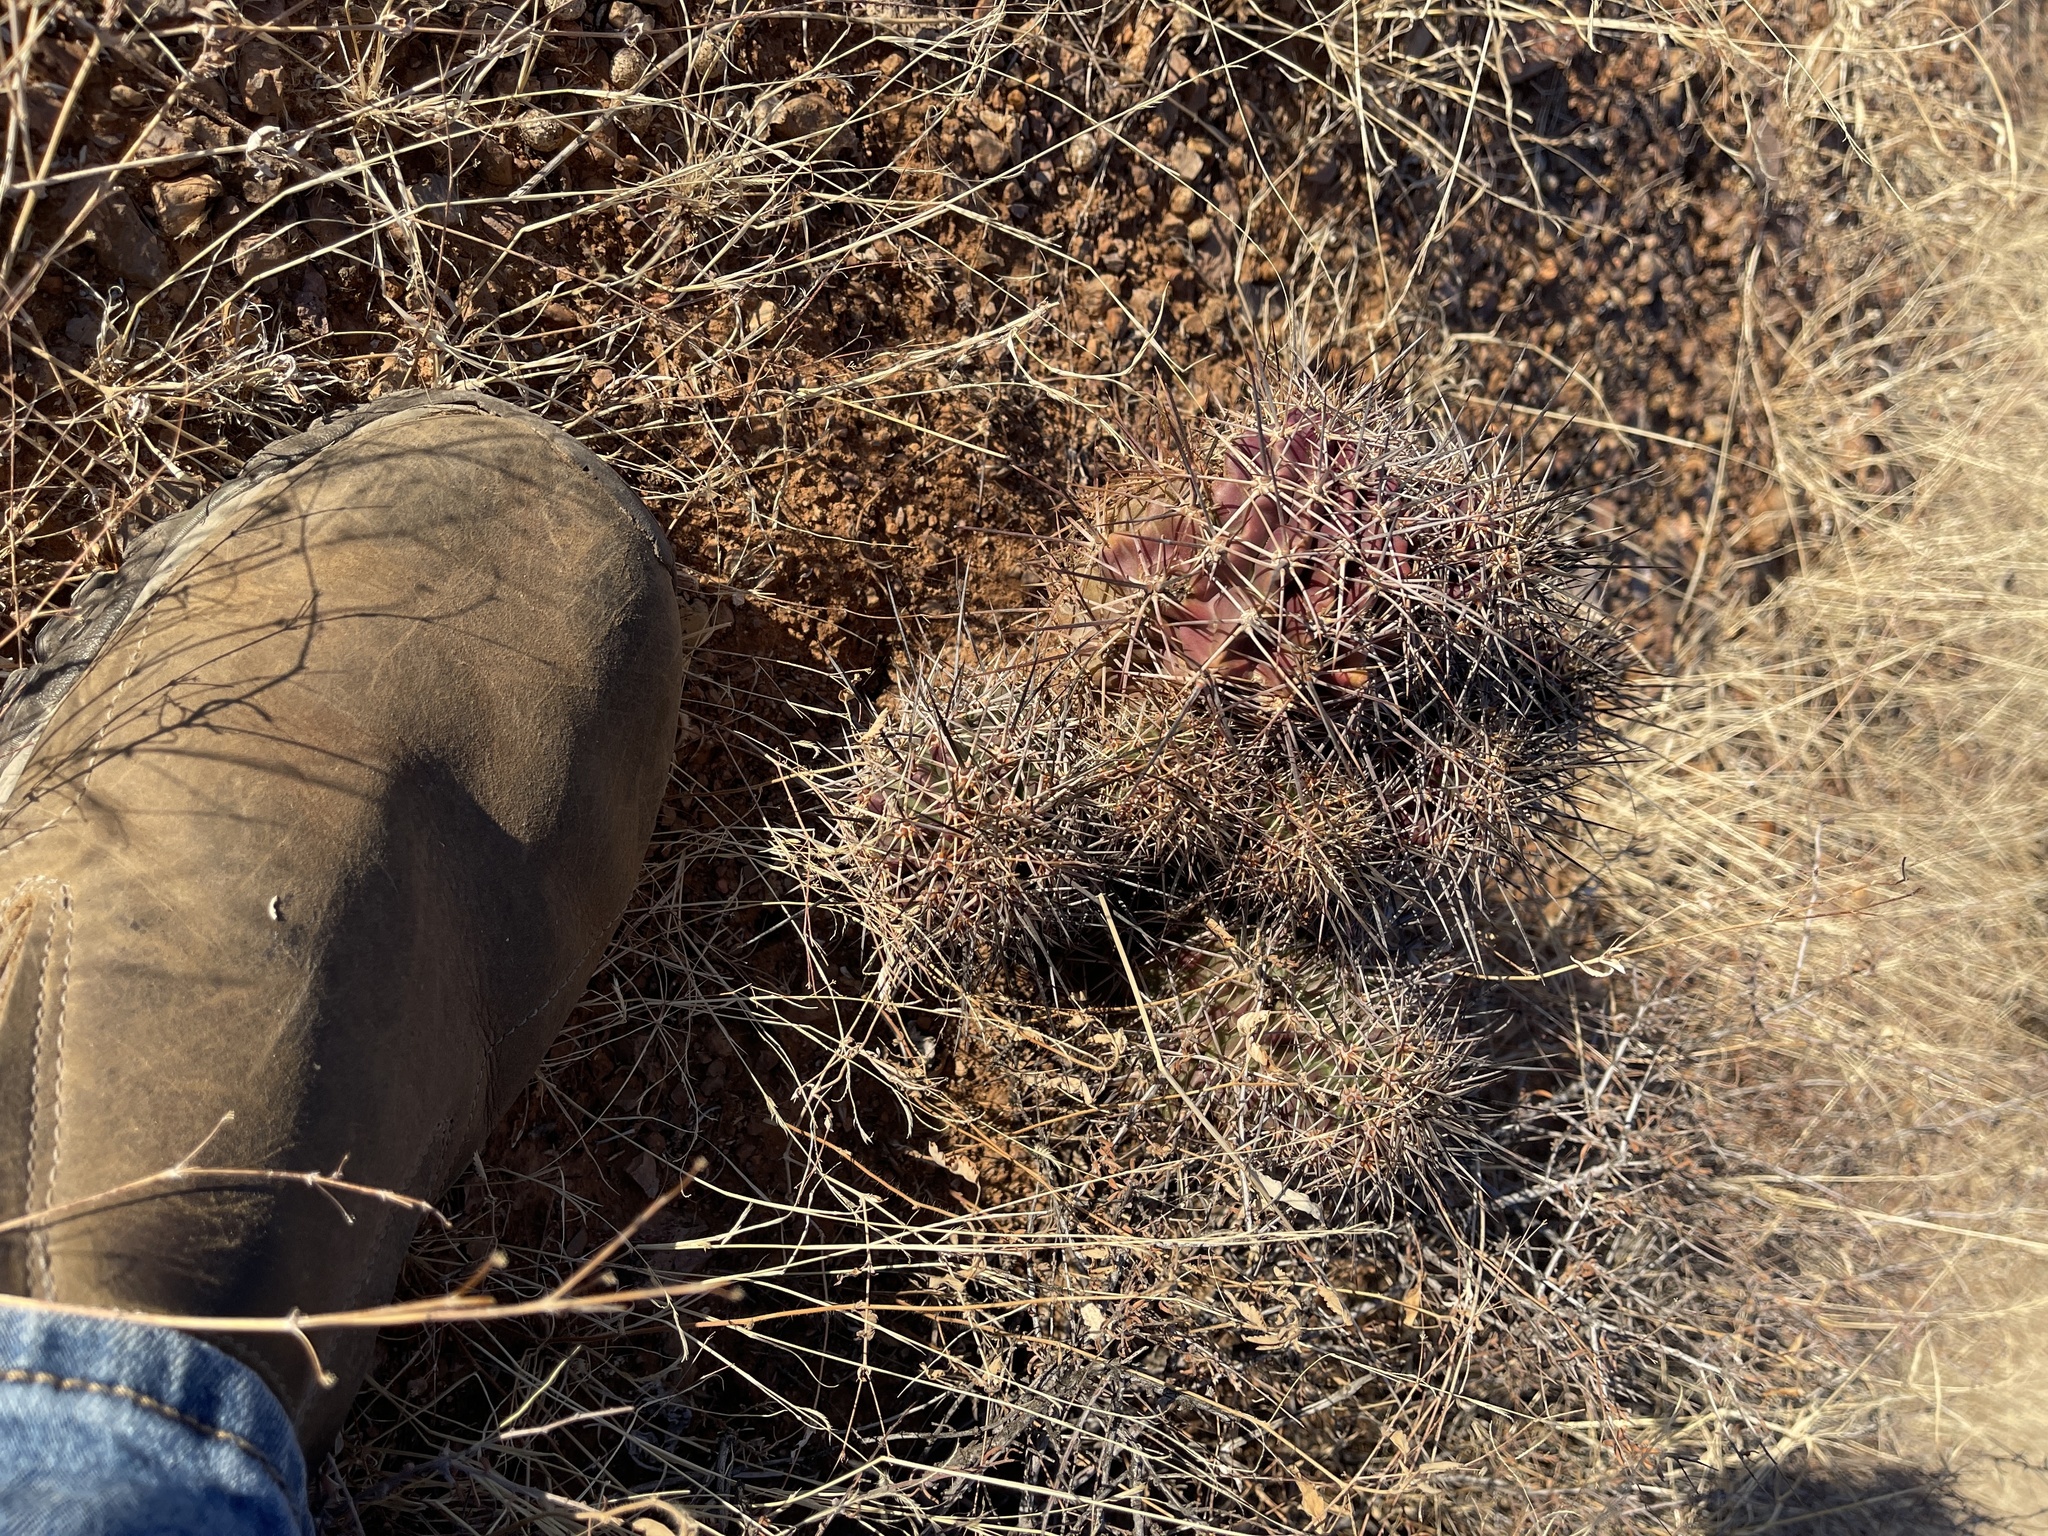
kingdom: Plantae
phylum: Tracheophyta
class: Magnoliopsida
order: Caryophyllales
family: Cactaceae
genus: Echinocereus
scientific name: Echinocereus coccineus
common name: Scarlet hedgehog cactus
